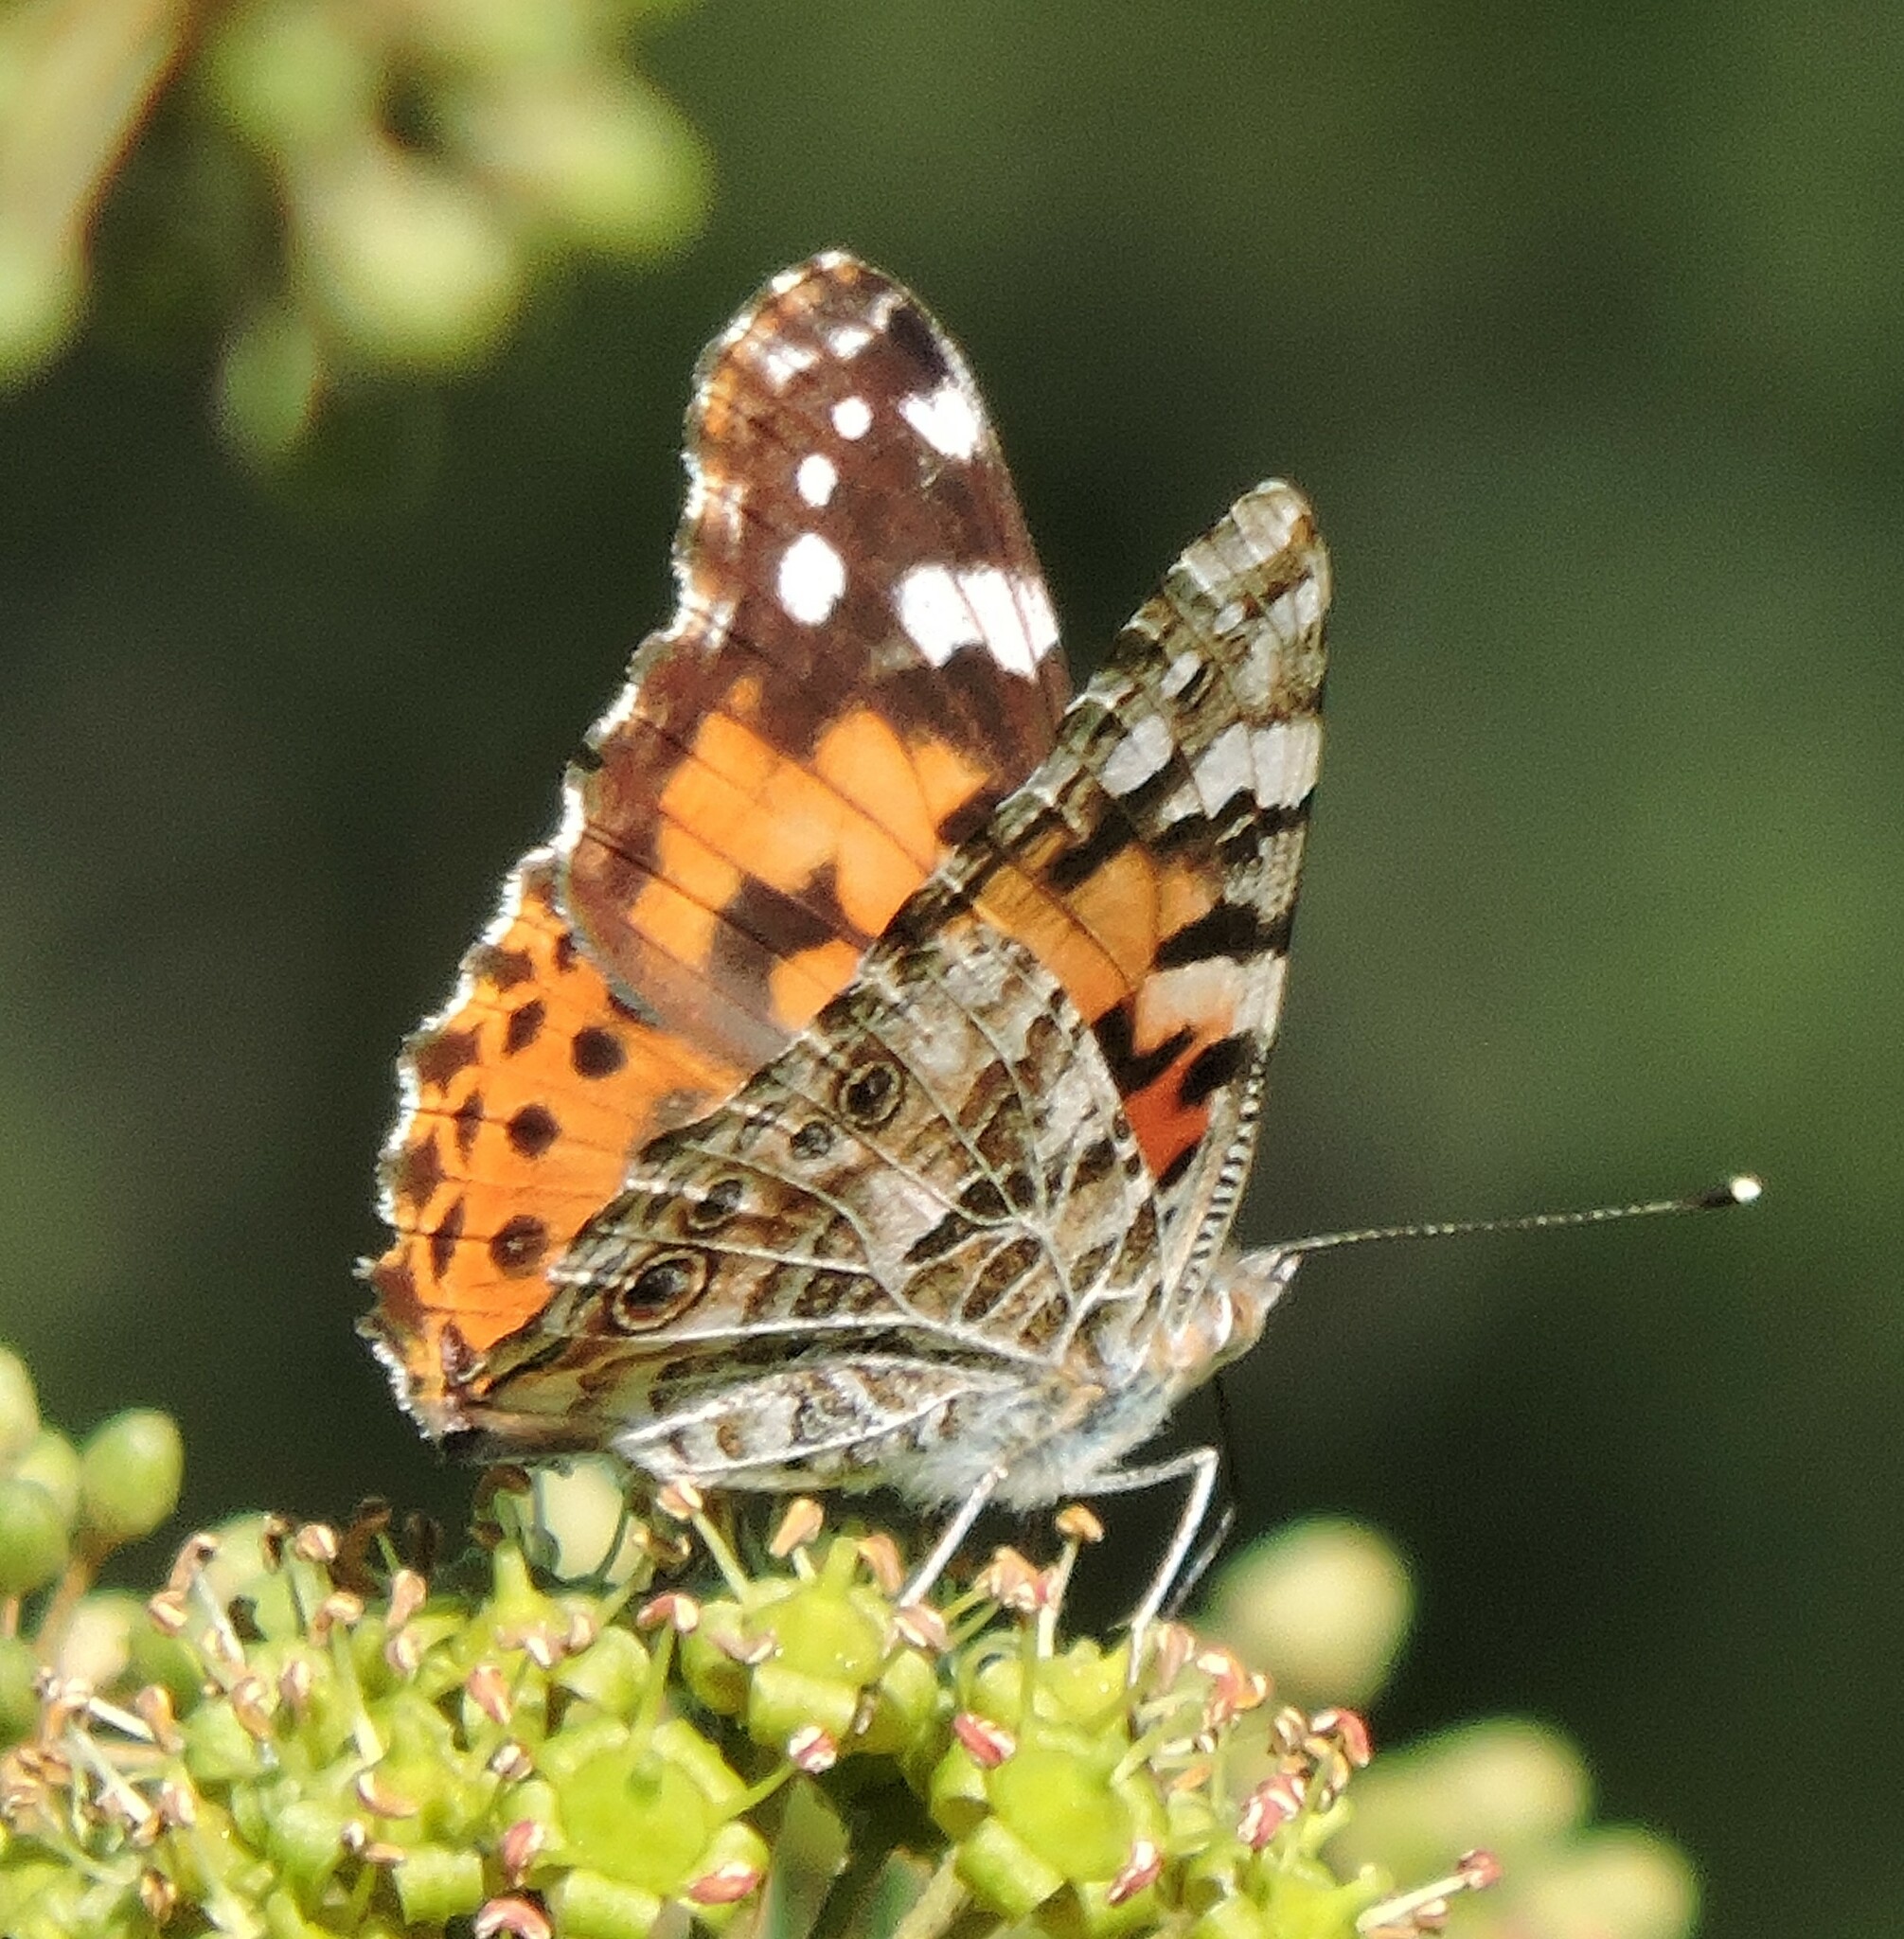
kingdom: Animalia
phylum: Arthropoda
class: Insecta
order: Lepidoptera
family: Nymphalidae
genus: Vanessa
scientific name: Vanessa cardui
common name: Painted lady
